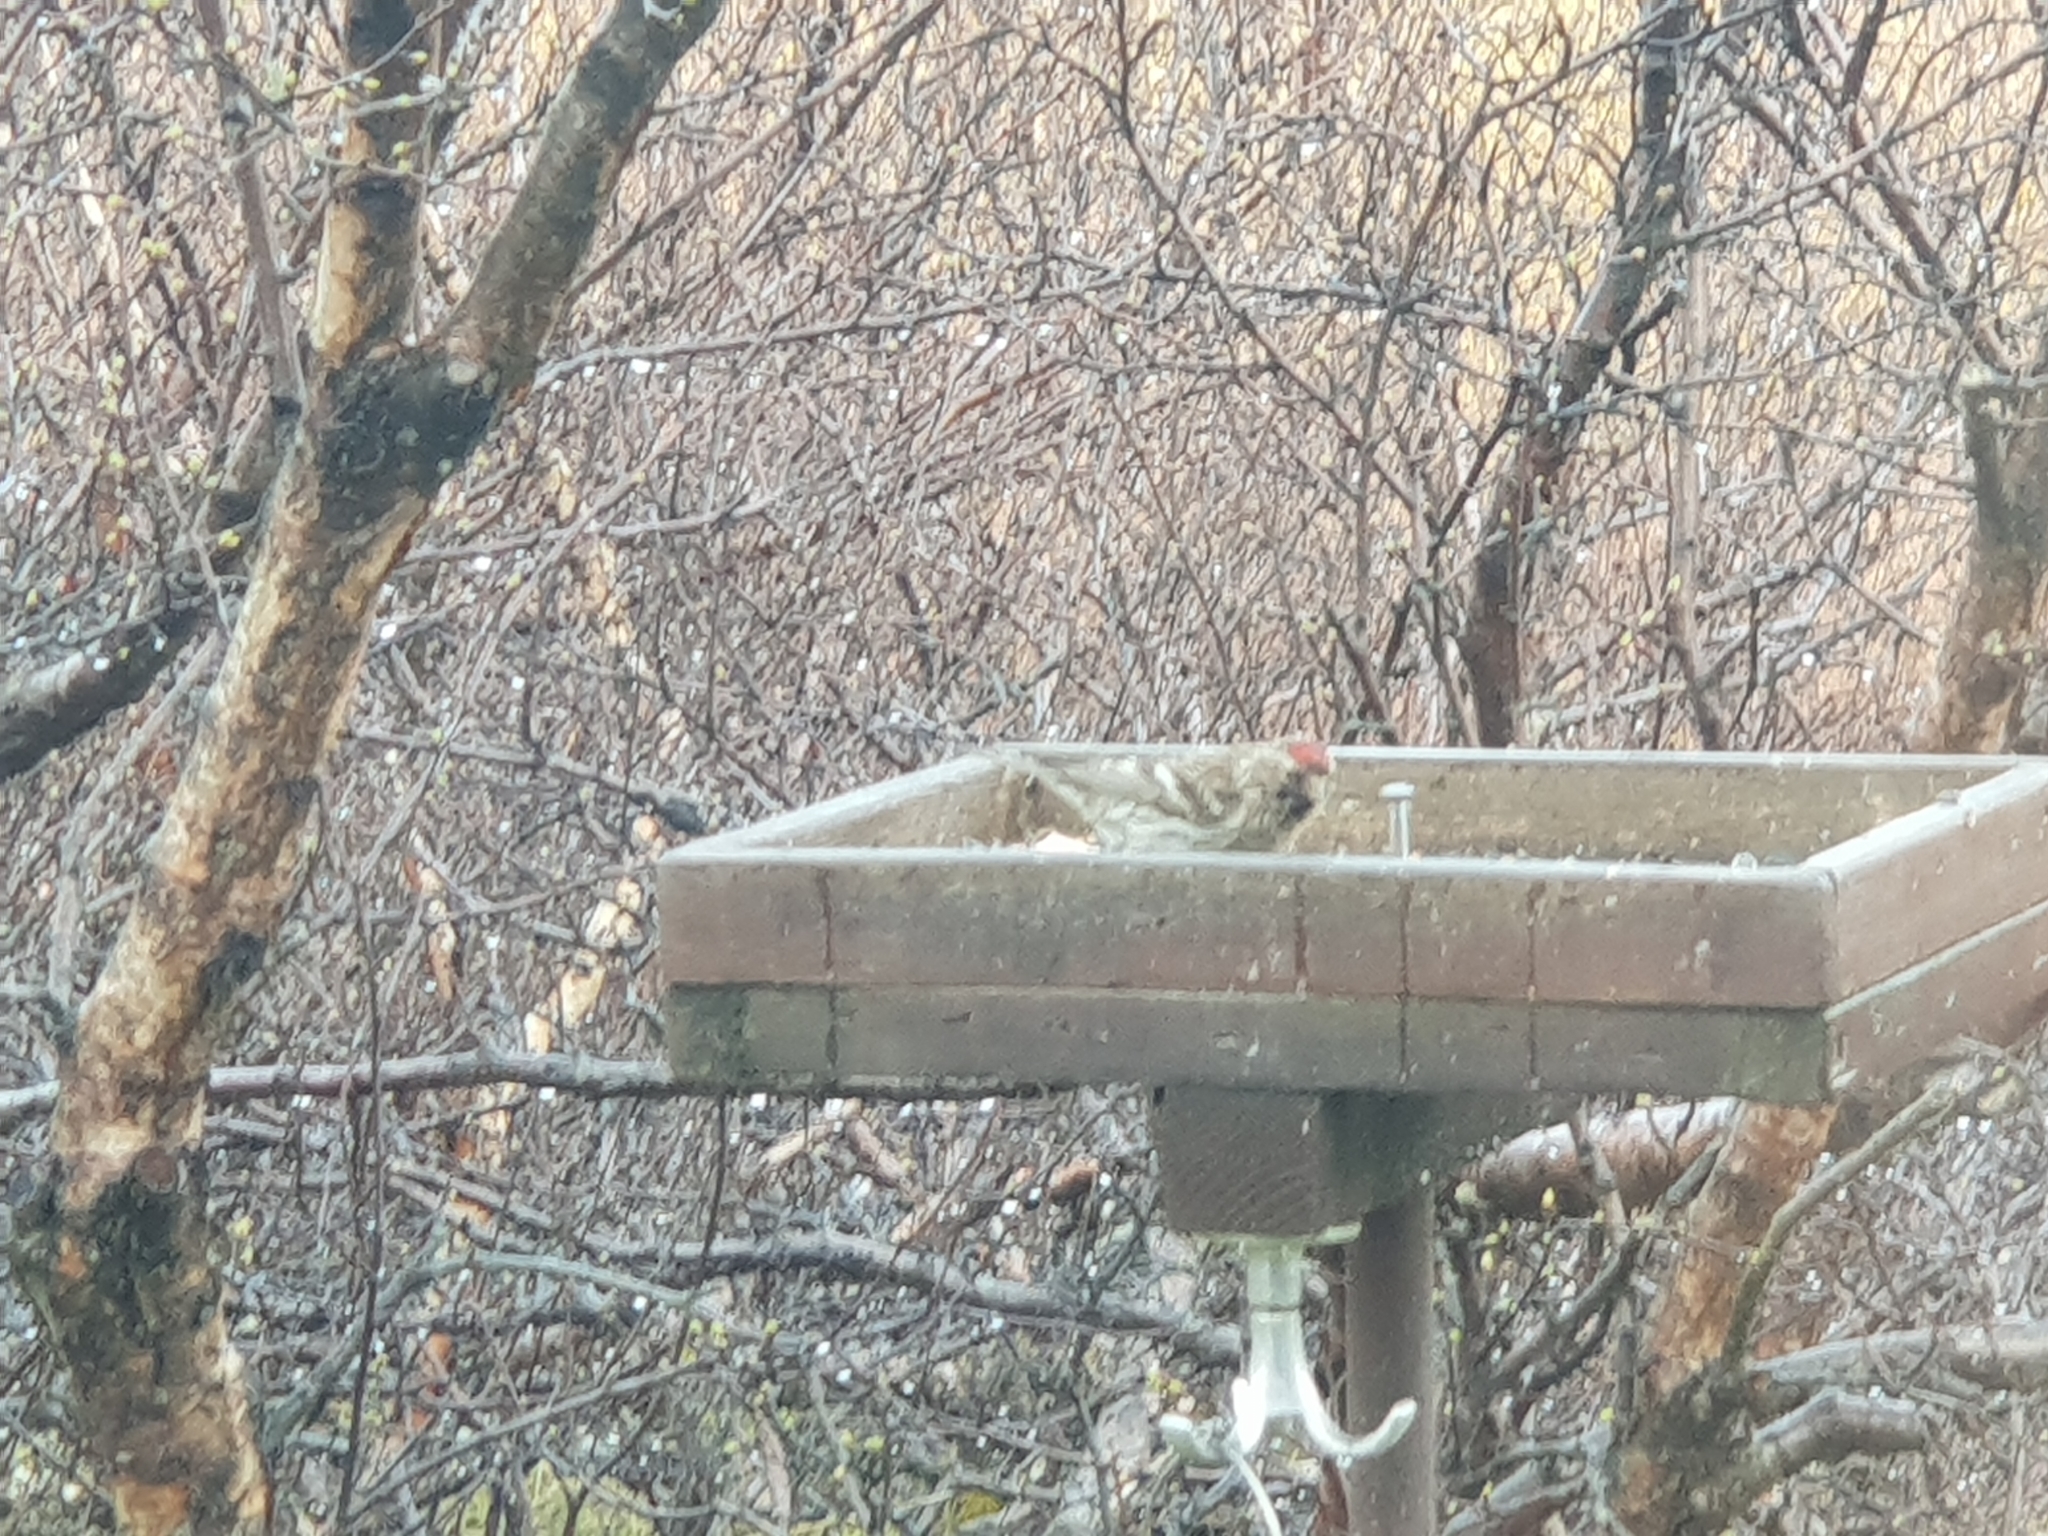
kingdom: Animalia
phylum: Chordata
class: Aves
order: Passeriformes
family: Fringillidae
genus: Acanthis
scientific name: Acanthis flammea
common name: Common redpoll
